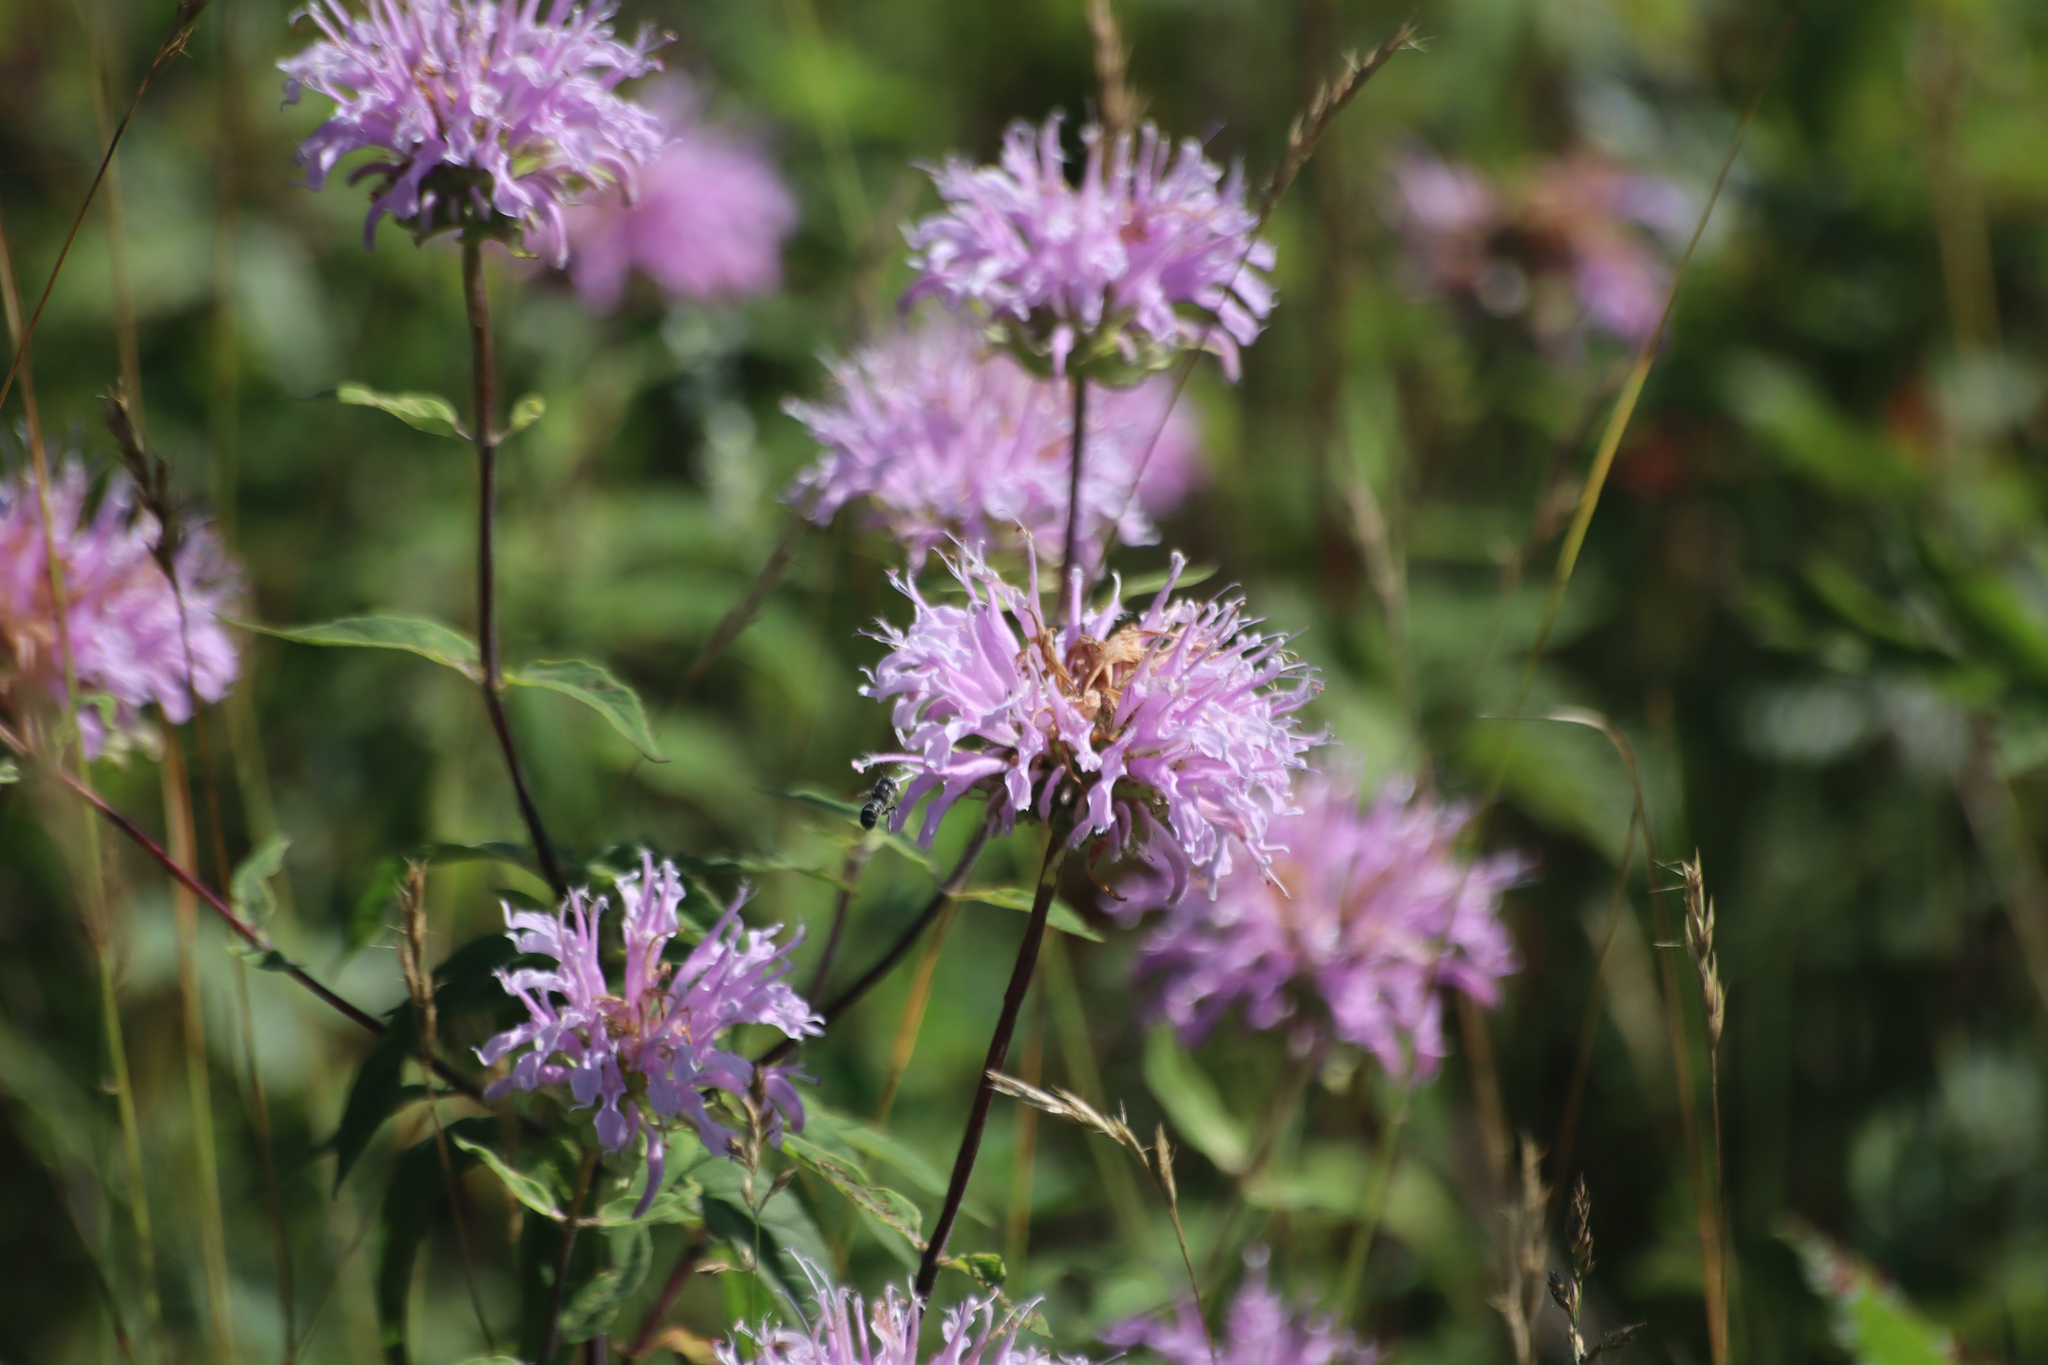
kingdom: Plantae
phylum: Tracheophyta
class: Magnoliopsida
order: Lamiales
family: Lamiaceae
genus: Monarda
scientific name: Monarda fistulosa
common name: Purple beebalm
